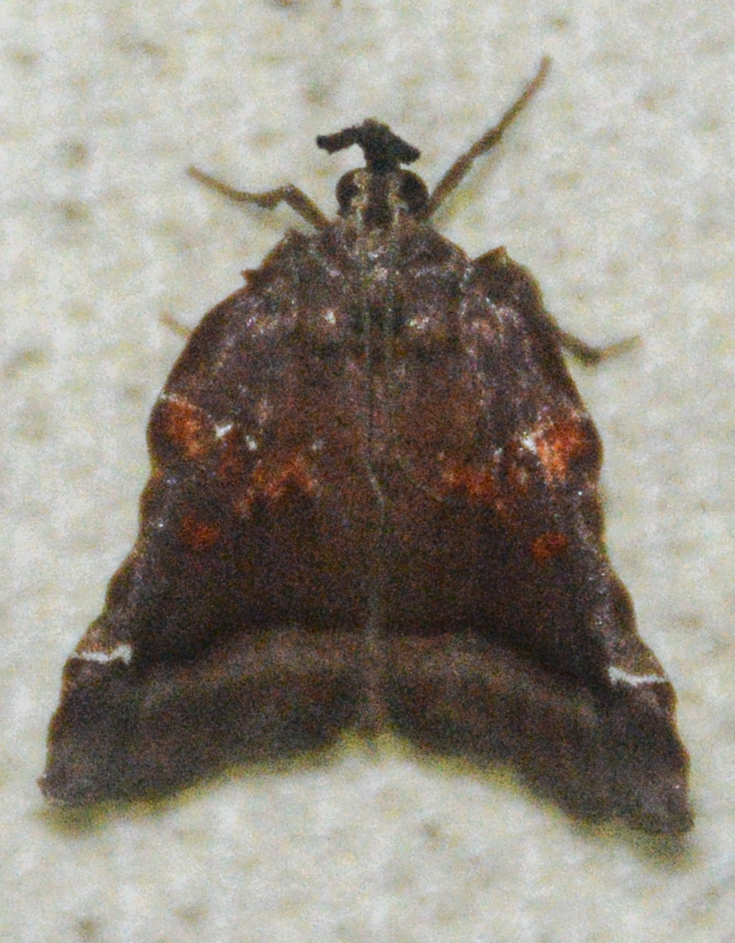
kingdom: Animalia
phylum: Arthropoda
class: Insecta
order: Lepidoptera
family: Pyralidae
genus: Clydonopteron
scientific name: Clydonopteron sacculana
